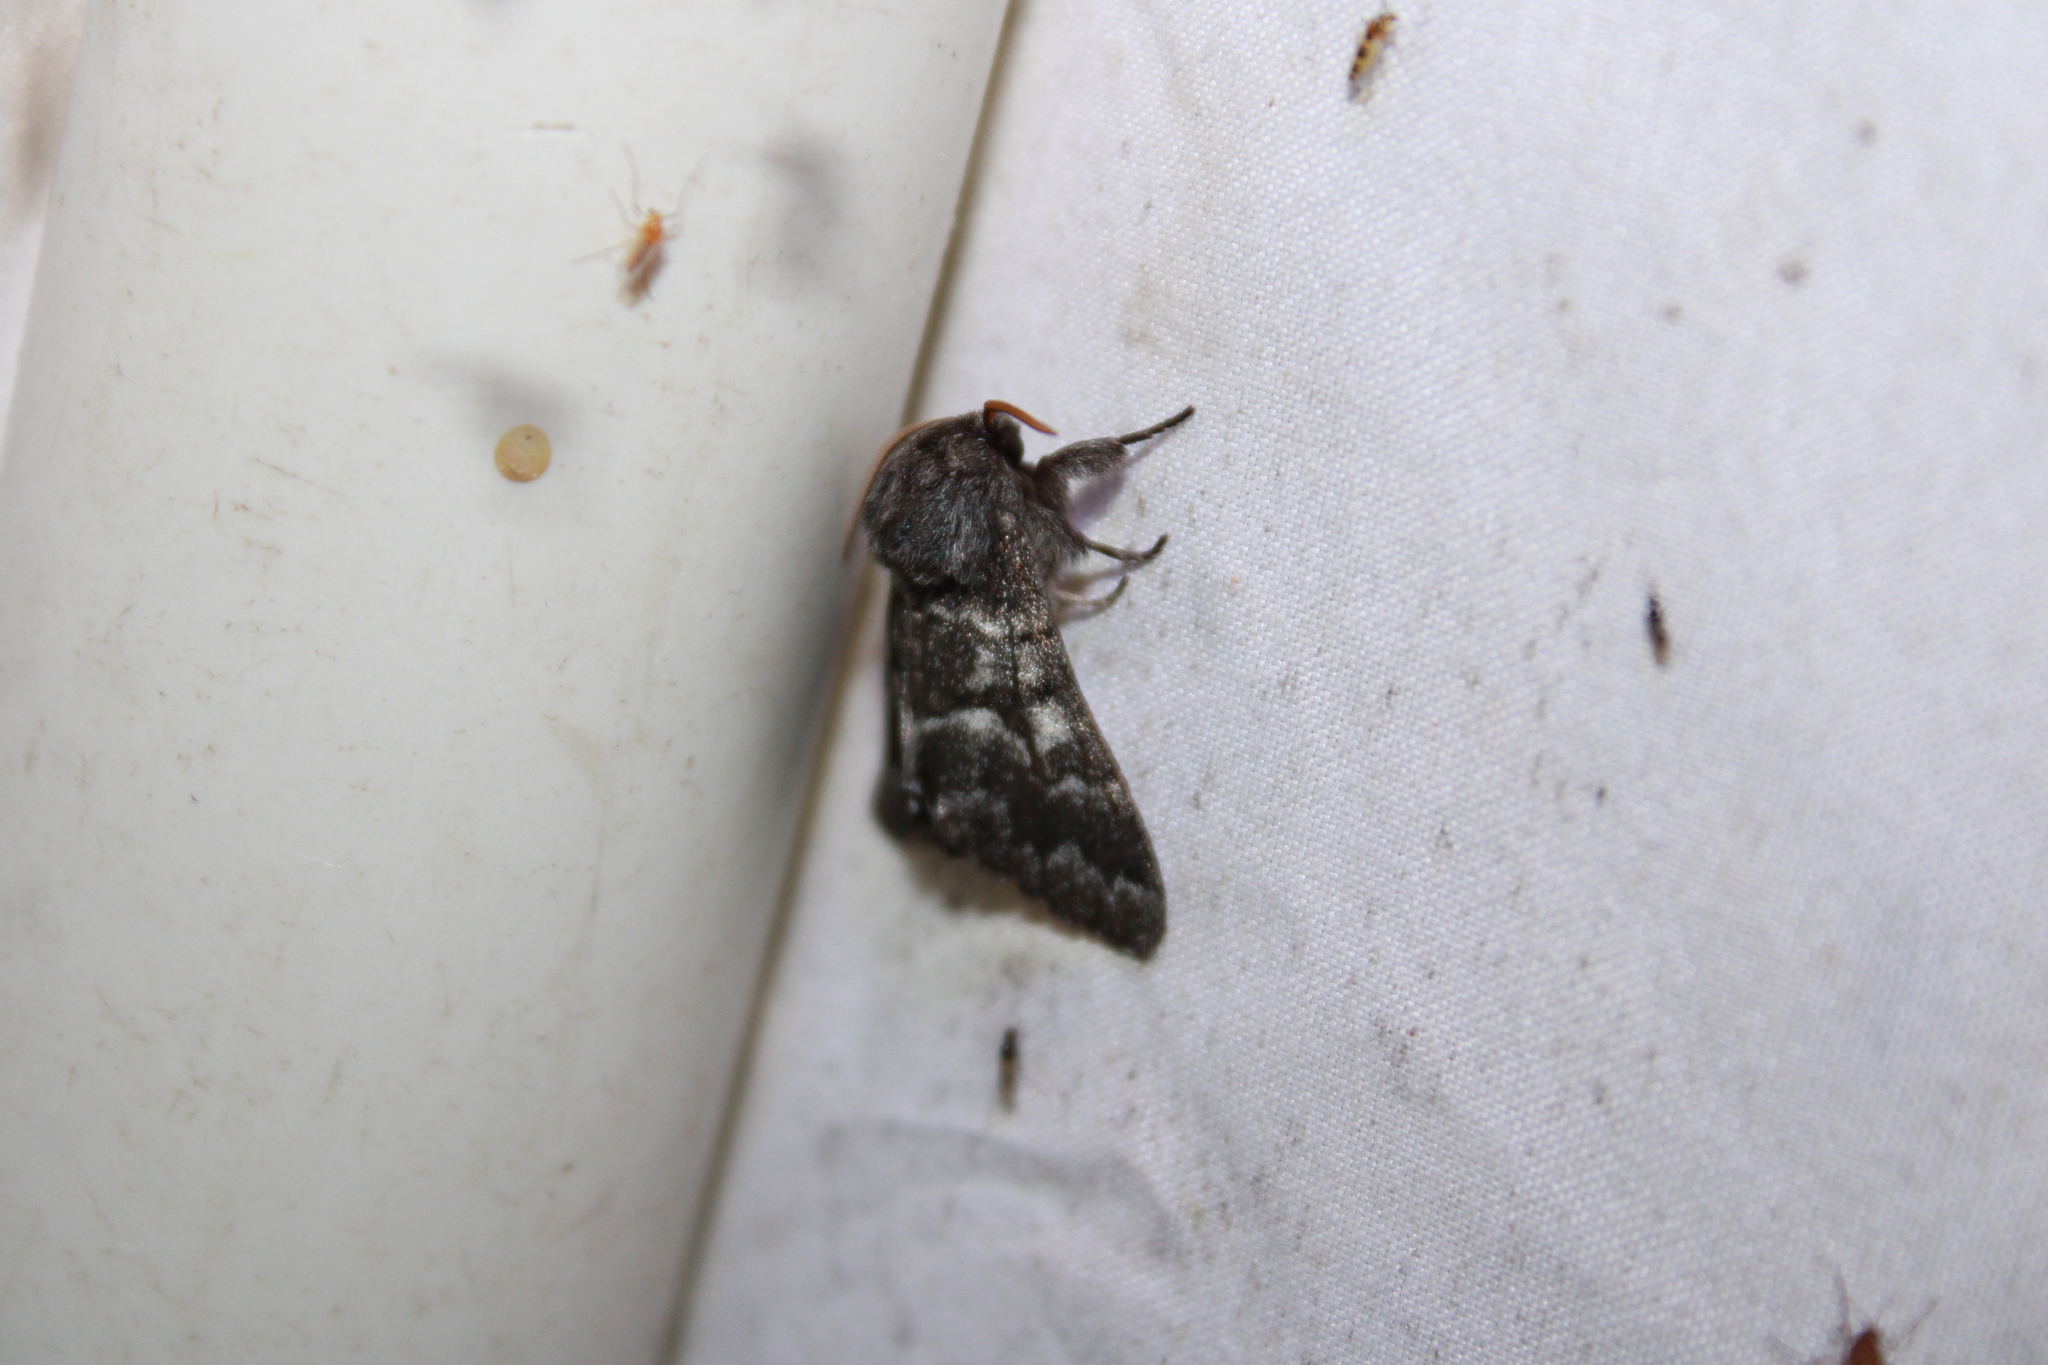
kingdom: Animalia
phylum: Arthropoda
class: Insecta
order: Lepidoptera
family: Noctuidae
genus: Panthea
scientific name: Panthea furcilla
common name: Eastern panthea moth
